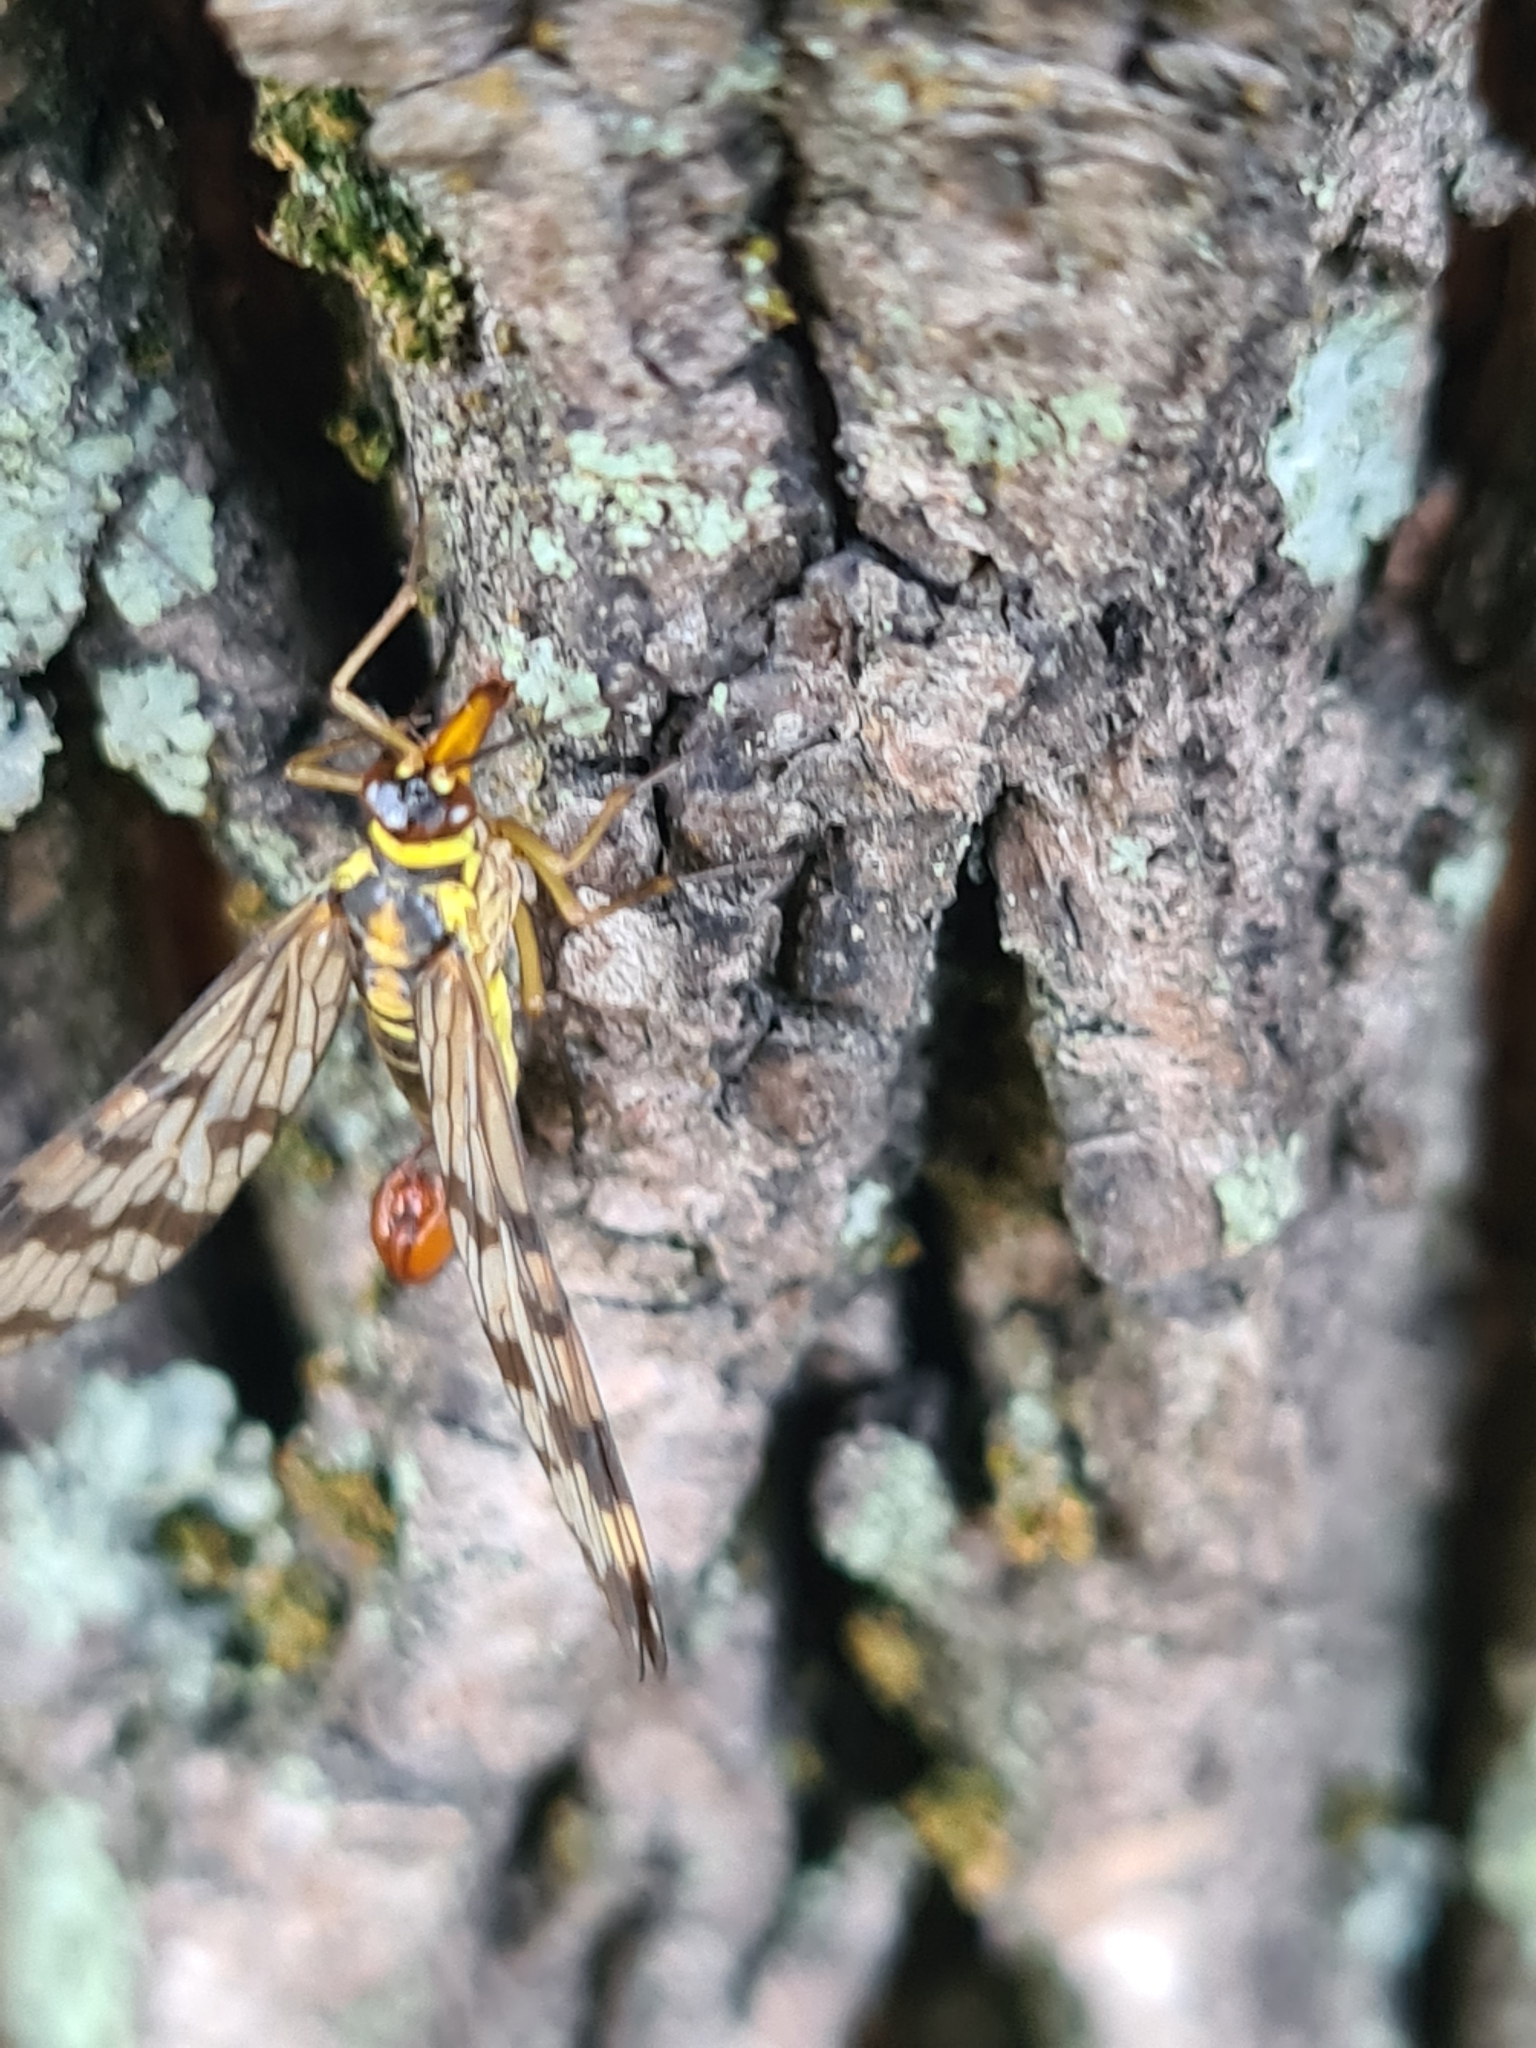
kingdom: Animalia
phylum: Arthropoda
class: Insecta
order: Mecoptera
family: Panorpidae
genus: Panorpa
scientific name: Panorpa communis
